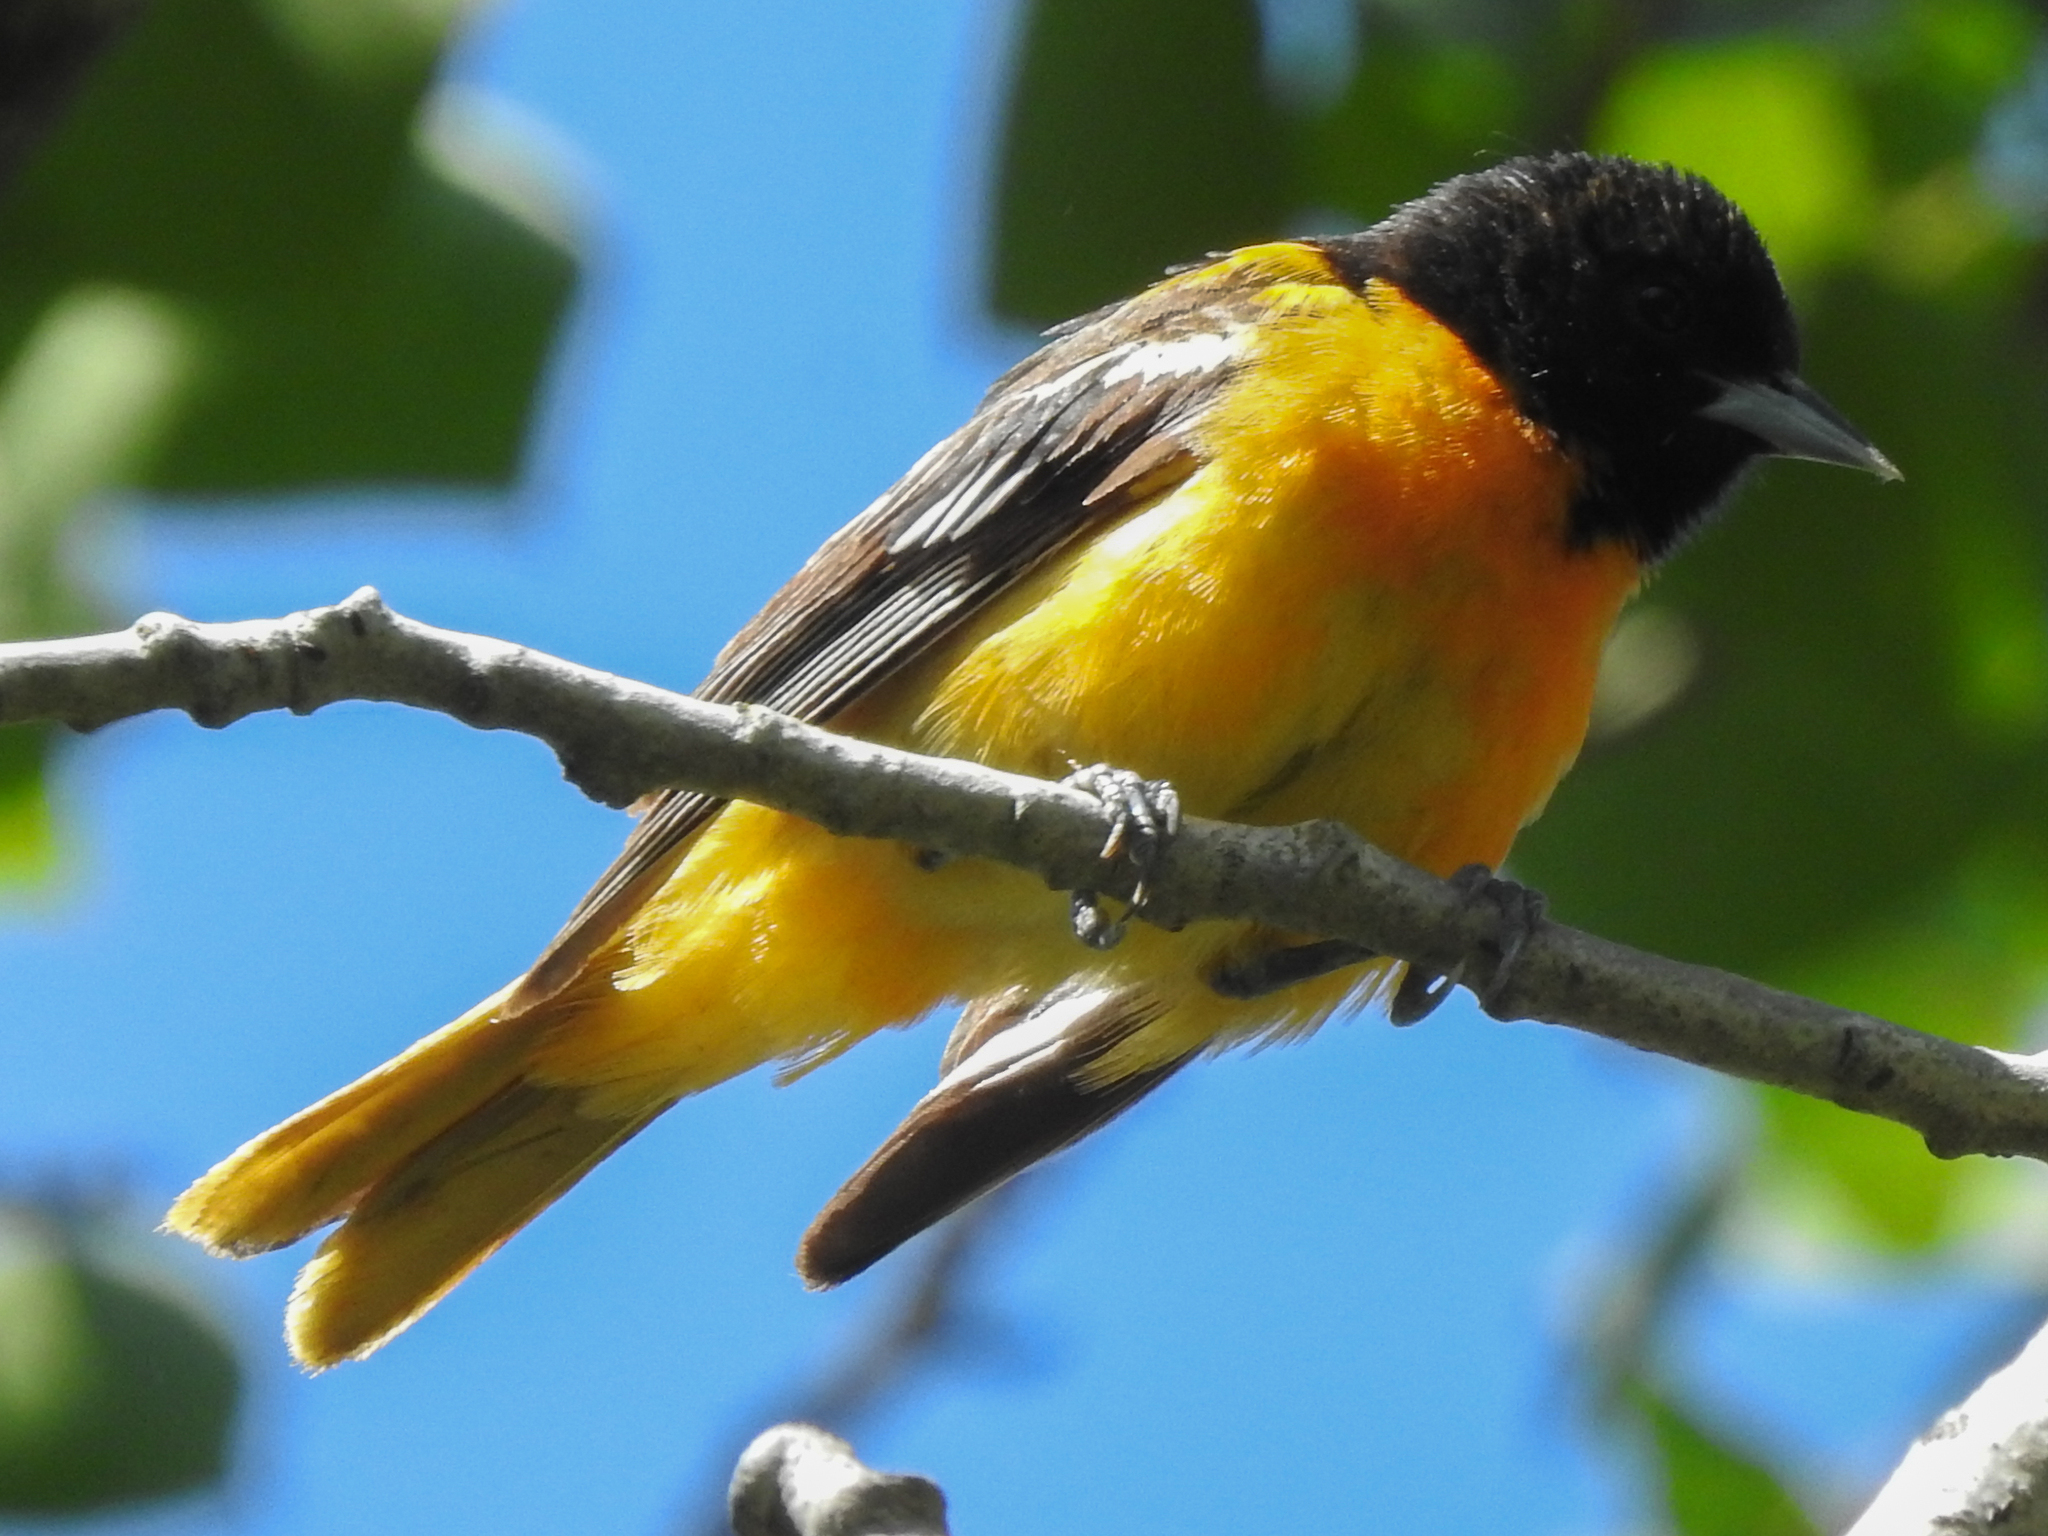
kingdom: Animalia
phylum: Chordata
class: Aves
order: Passeriformes
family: Icteridae
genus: Icterus
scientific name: Icterus galbula
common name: Baltimore oriole
